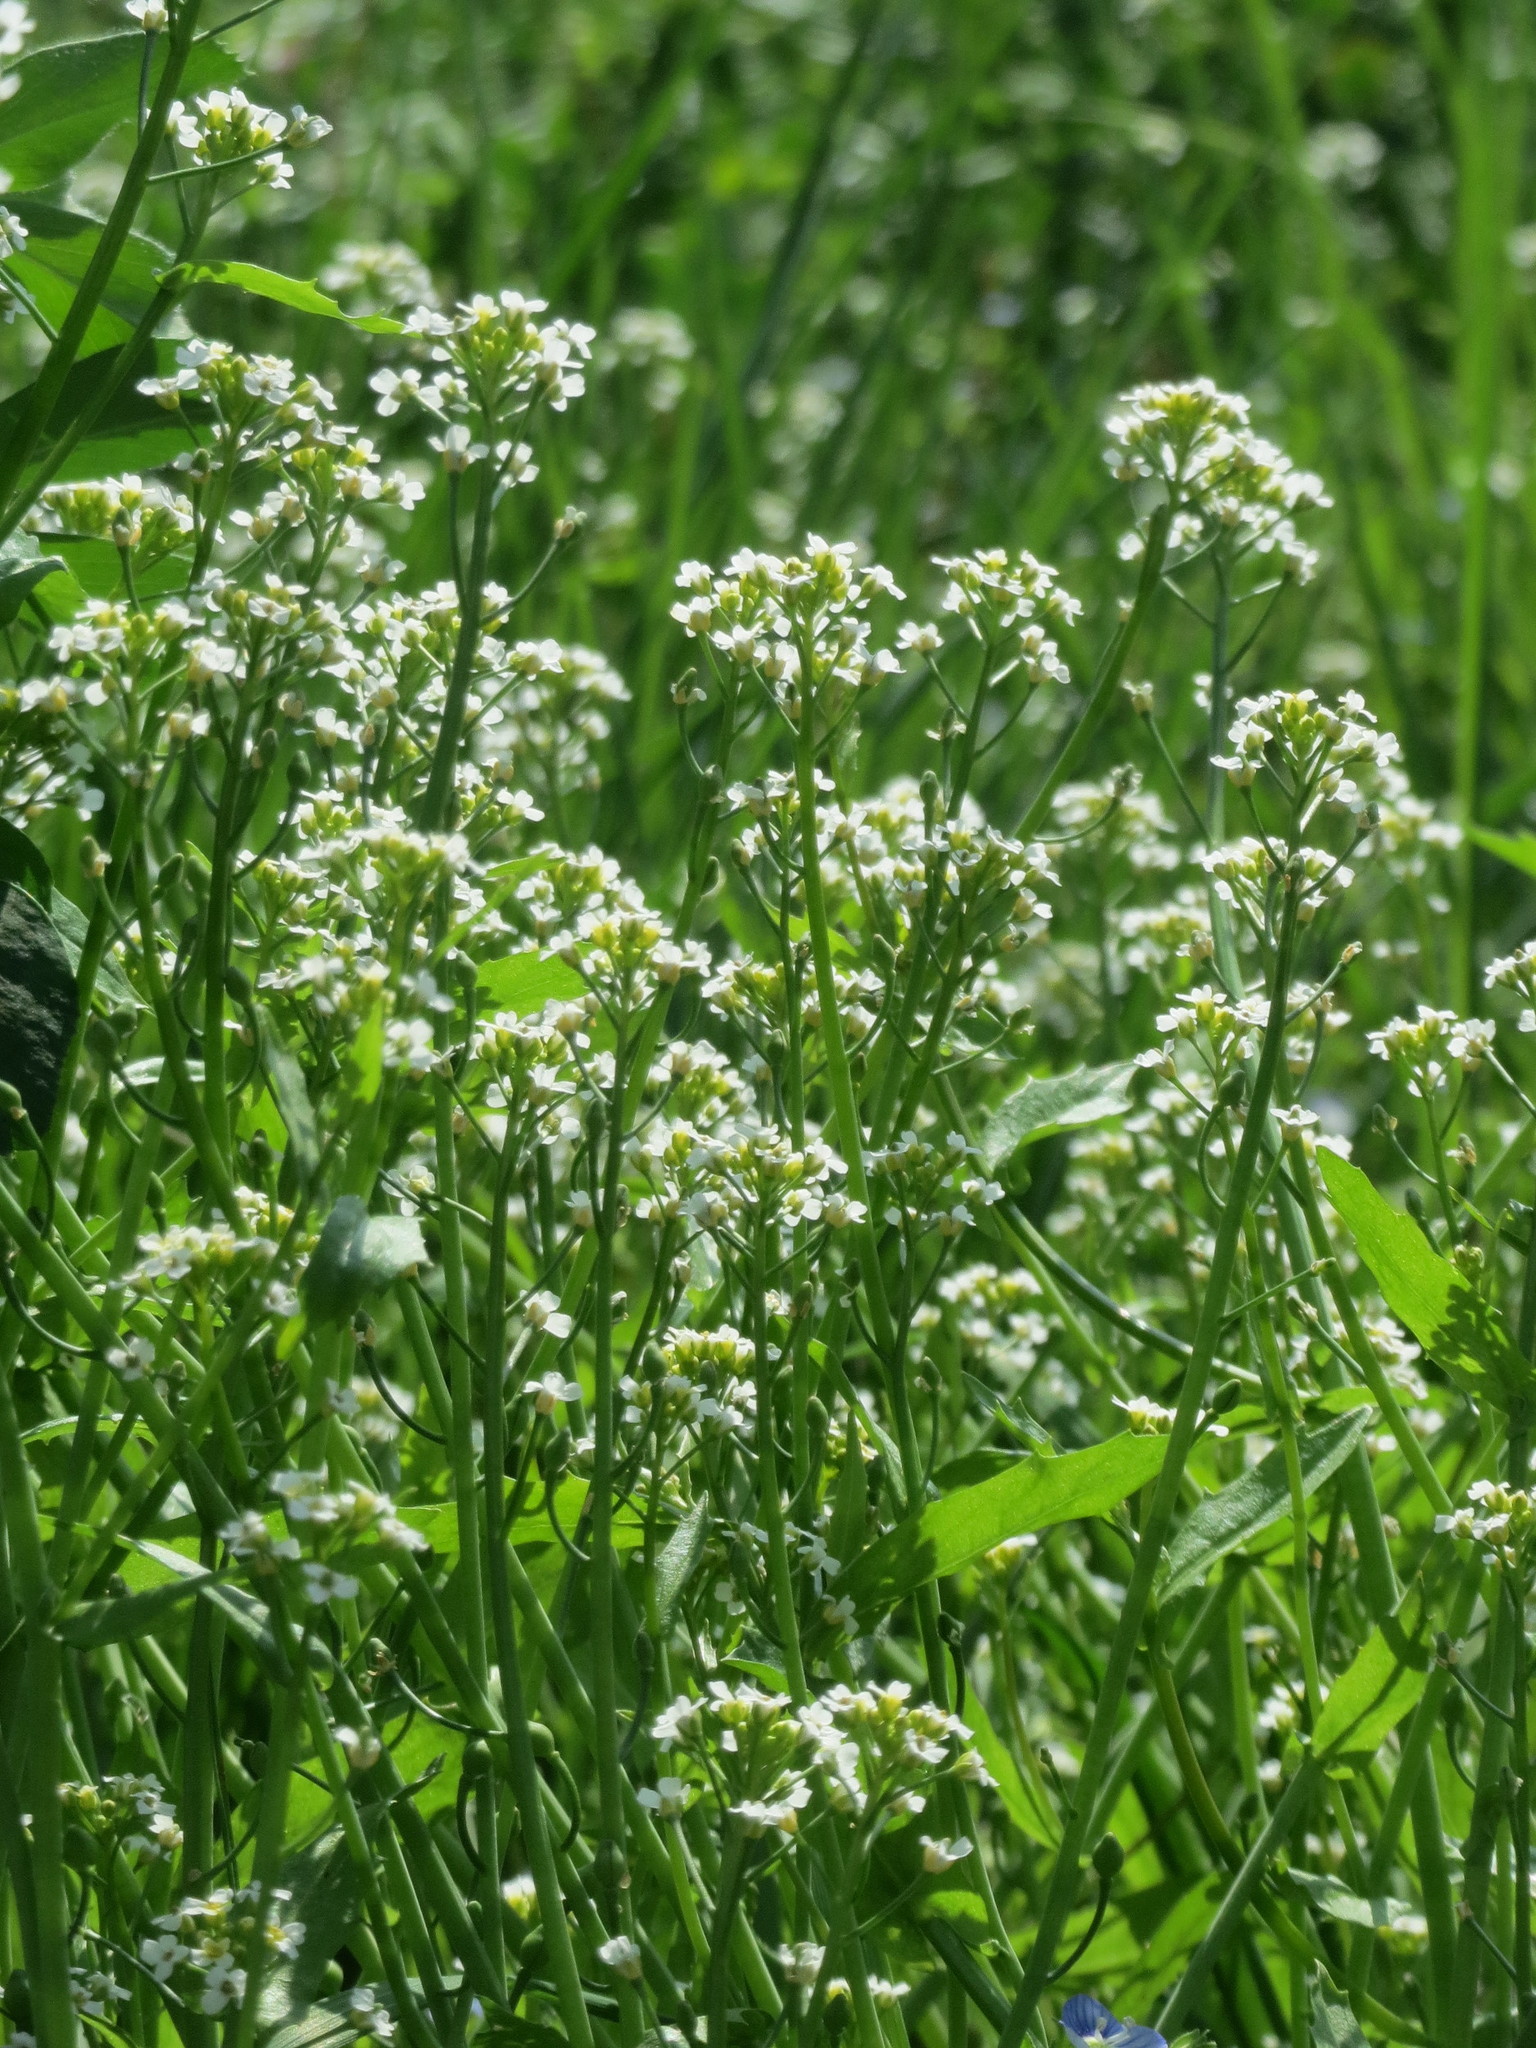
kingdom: Plantae
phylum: Tracheophyta
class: Magnoliopsida
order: Brassicales
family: Brassicaceae
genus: Calepina
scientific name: Calepina irregularis
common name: White ballmustard
